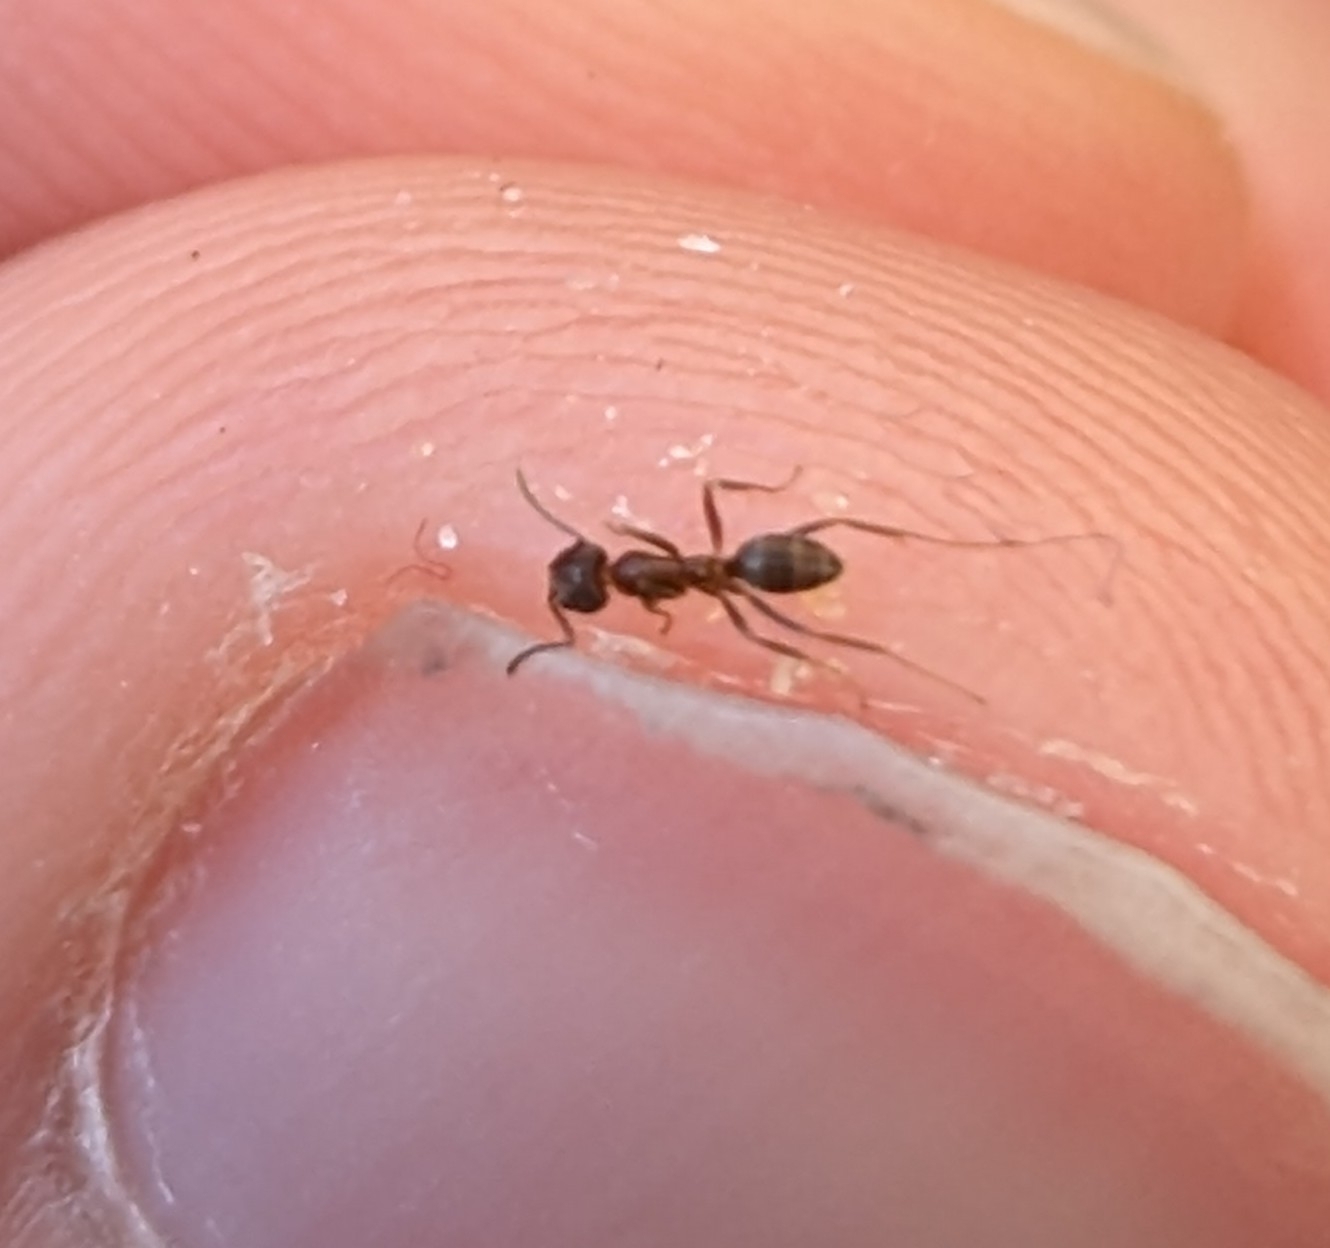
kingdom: Animalia
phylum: Arthropoda
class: Insecta
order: Hymenoptera
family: Formicidae
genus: Linepithema
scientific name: Linepithema humile
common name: Argentine ant
